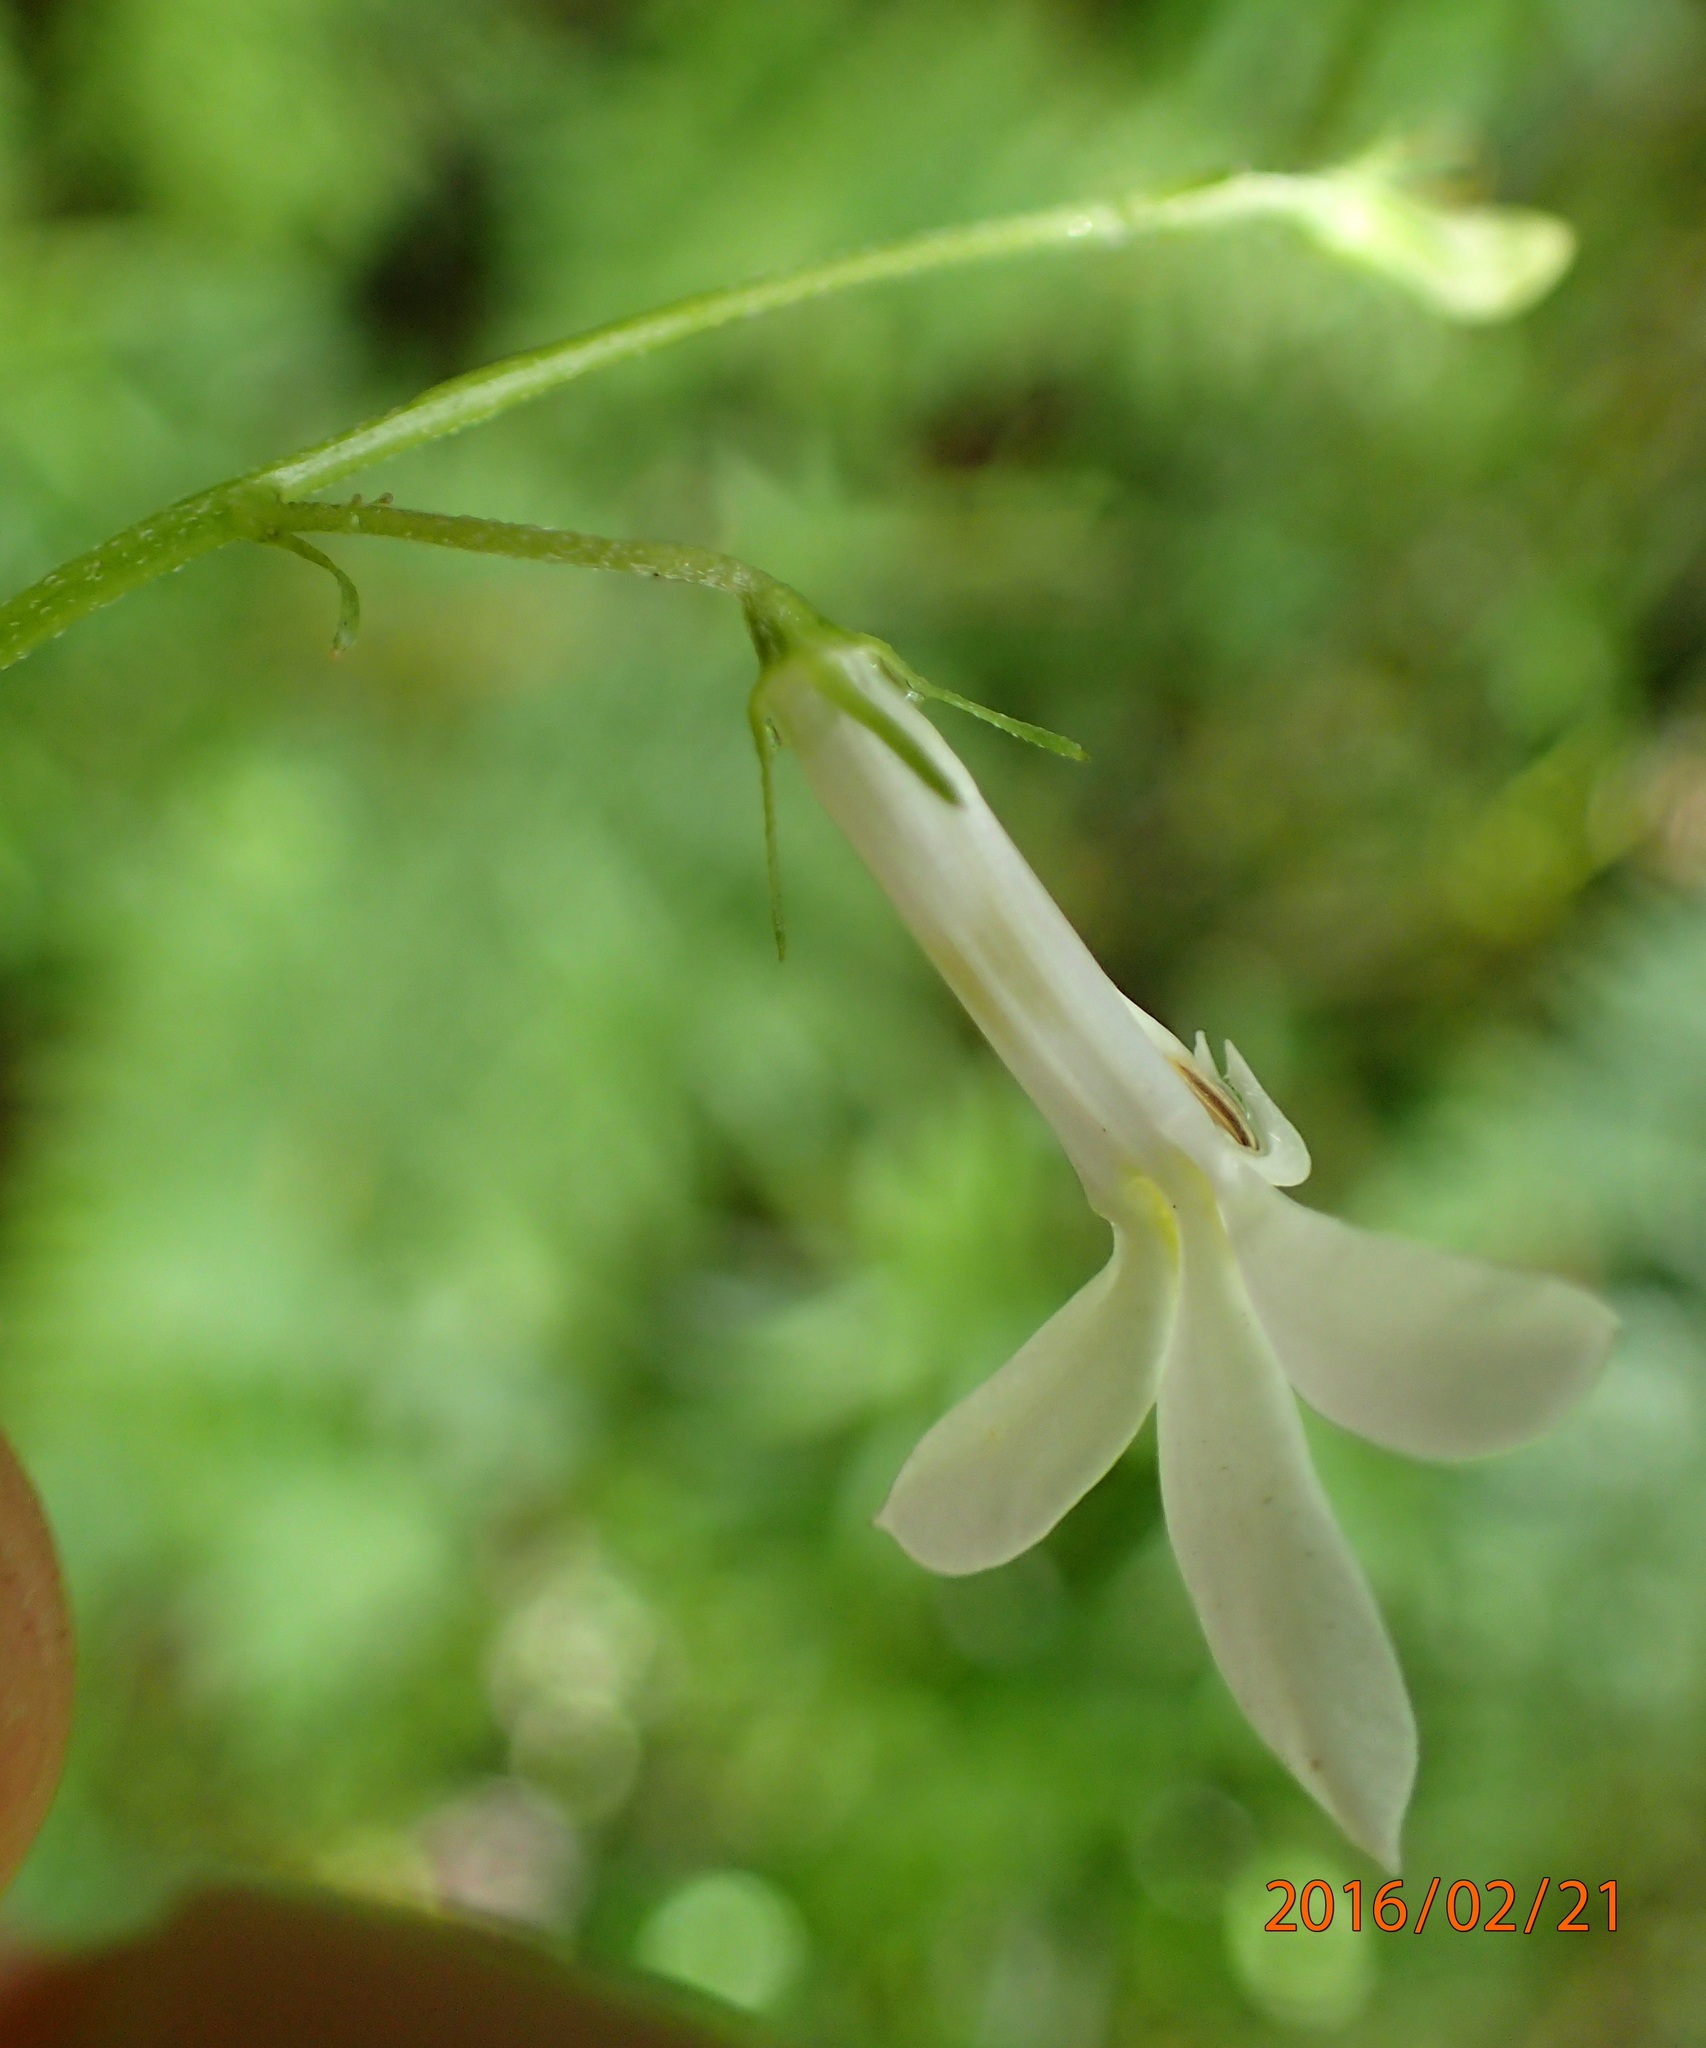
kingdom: Plantae
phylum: Tracheophyta
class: Magnoliopsida
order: Asterales
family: Campanulaceae
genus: Lobelia
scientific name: Lobelia vanreenensis
